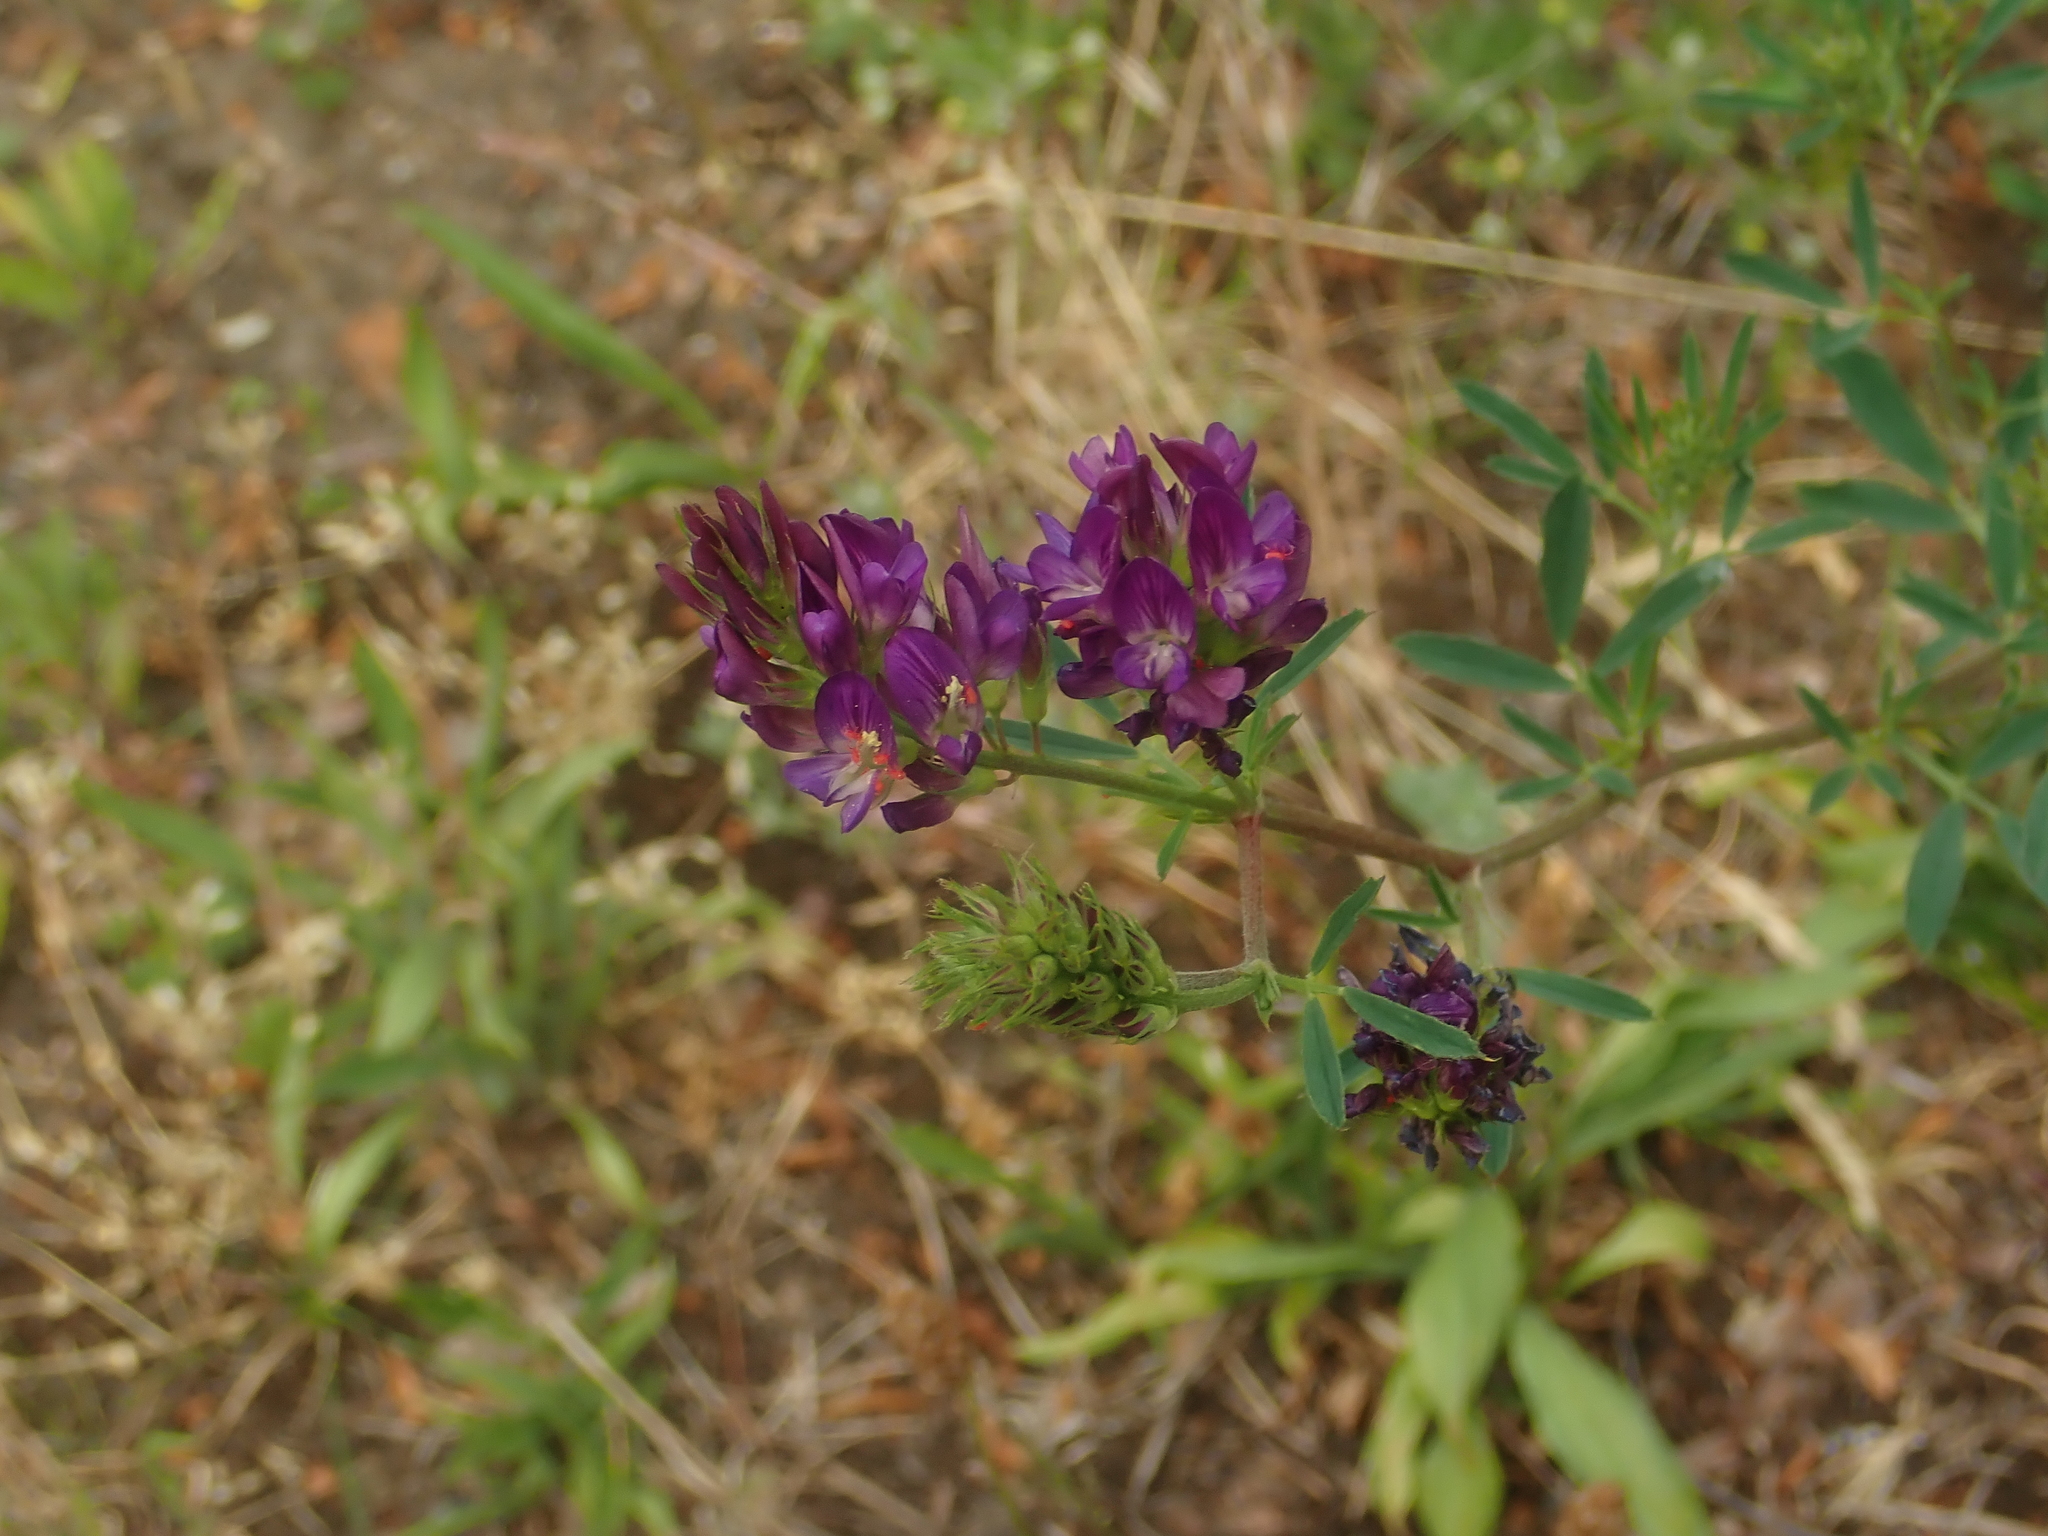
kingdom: Plantae
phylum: Tracheophyta
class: Magnoliopsida
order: Fabales
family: Fabaceae
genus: Medicago
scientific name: Medicago sativa
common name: Alfalfa
